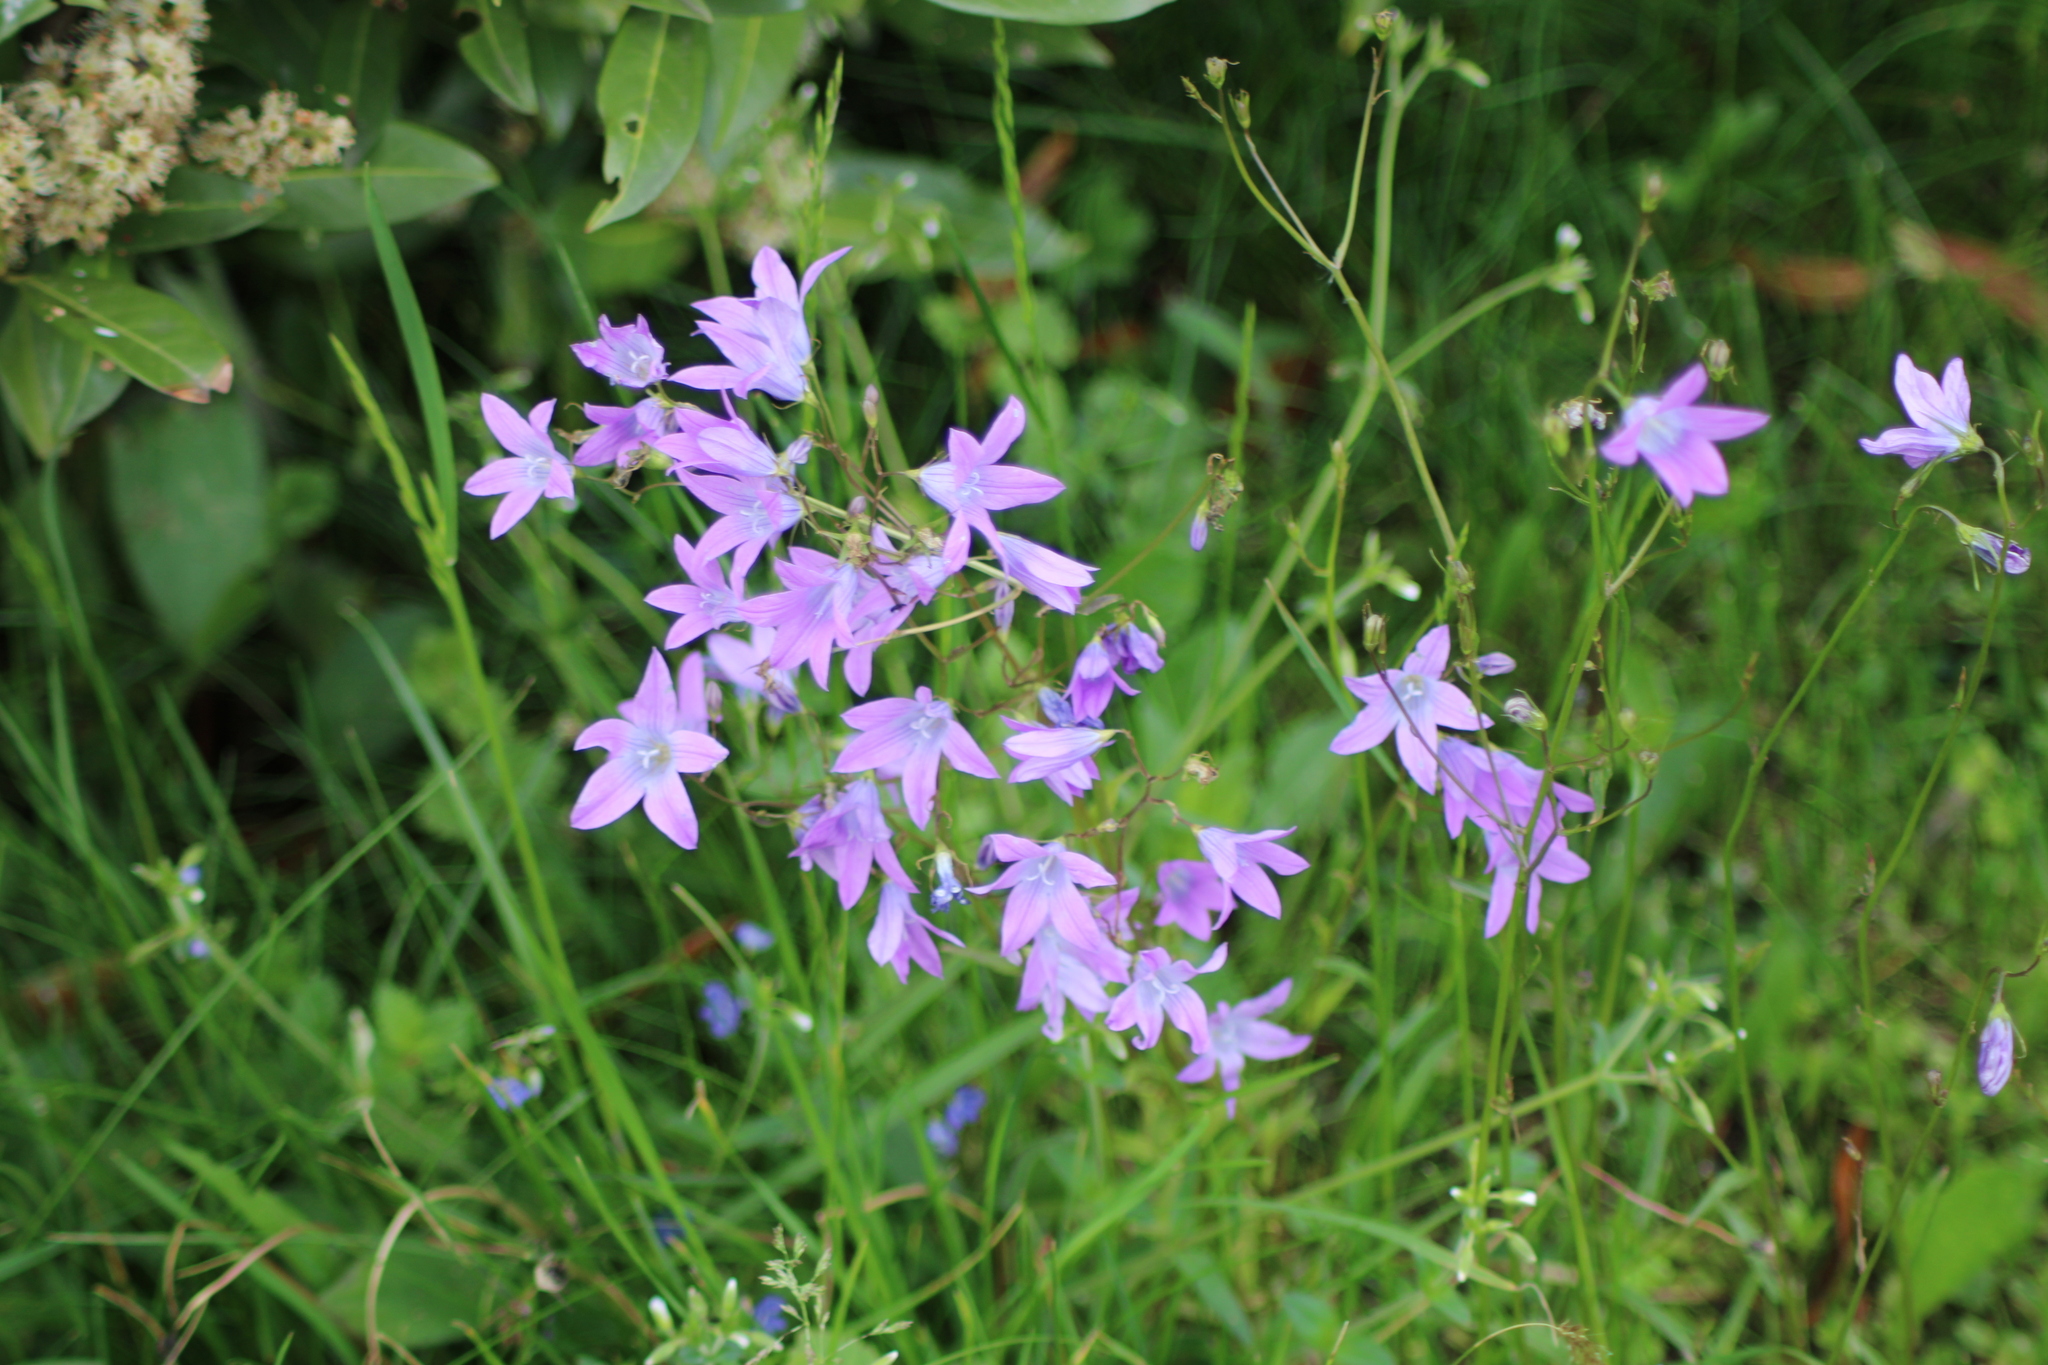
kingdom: Plantae
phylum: Tracheophyta
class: Magnoliopsida
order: Asterales
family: Campanulaceae
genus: Campanula
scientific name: Campanula patula
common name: Spreading bellflower
